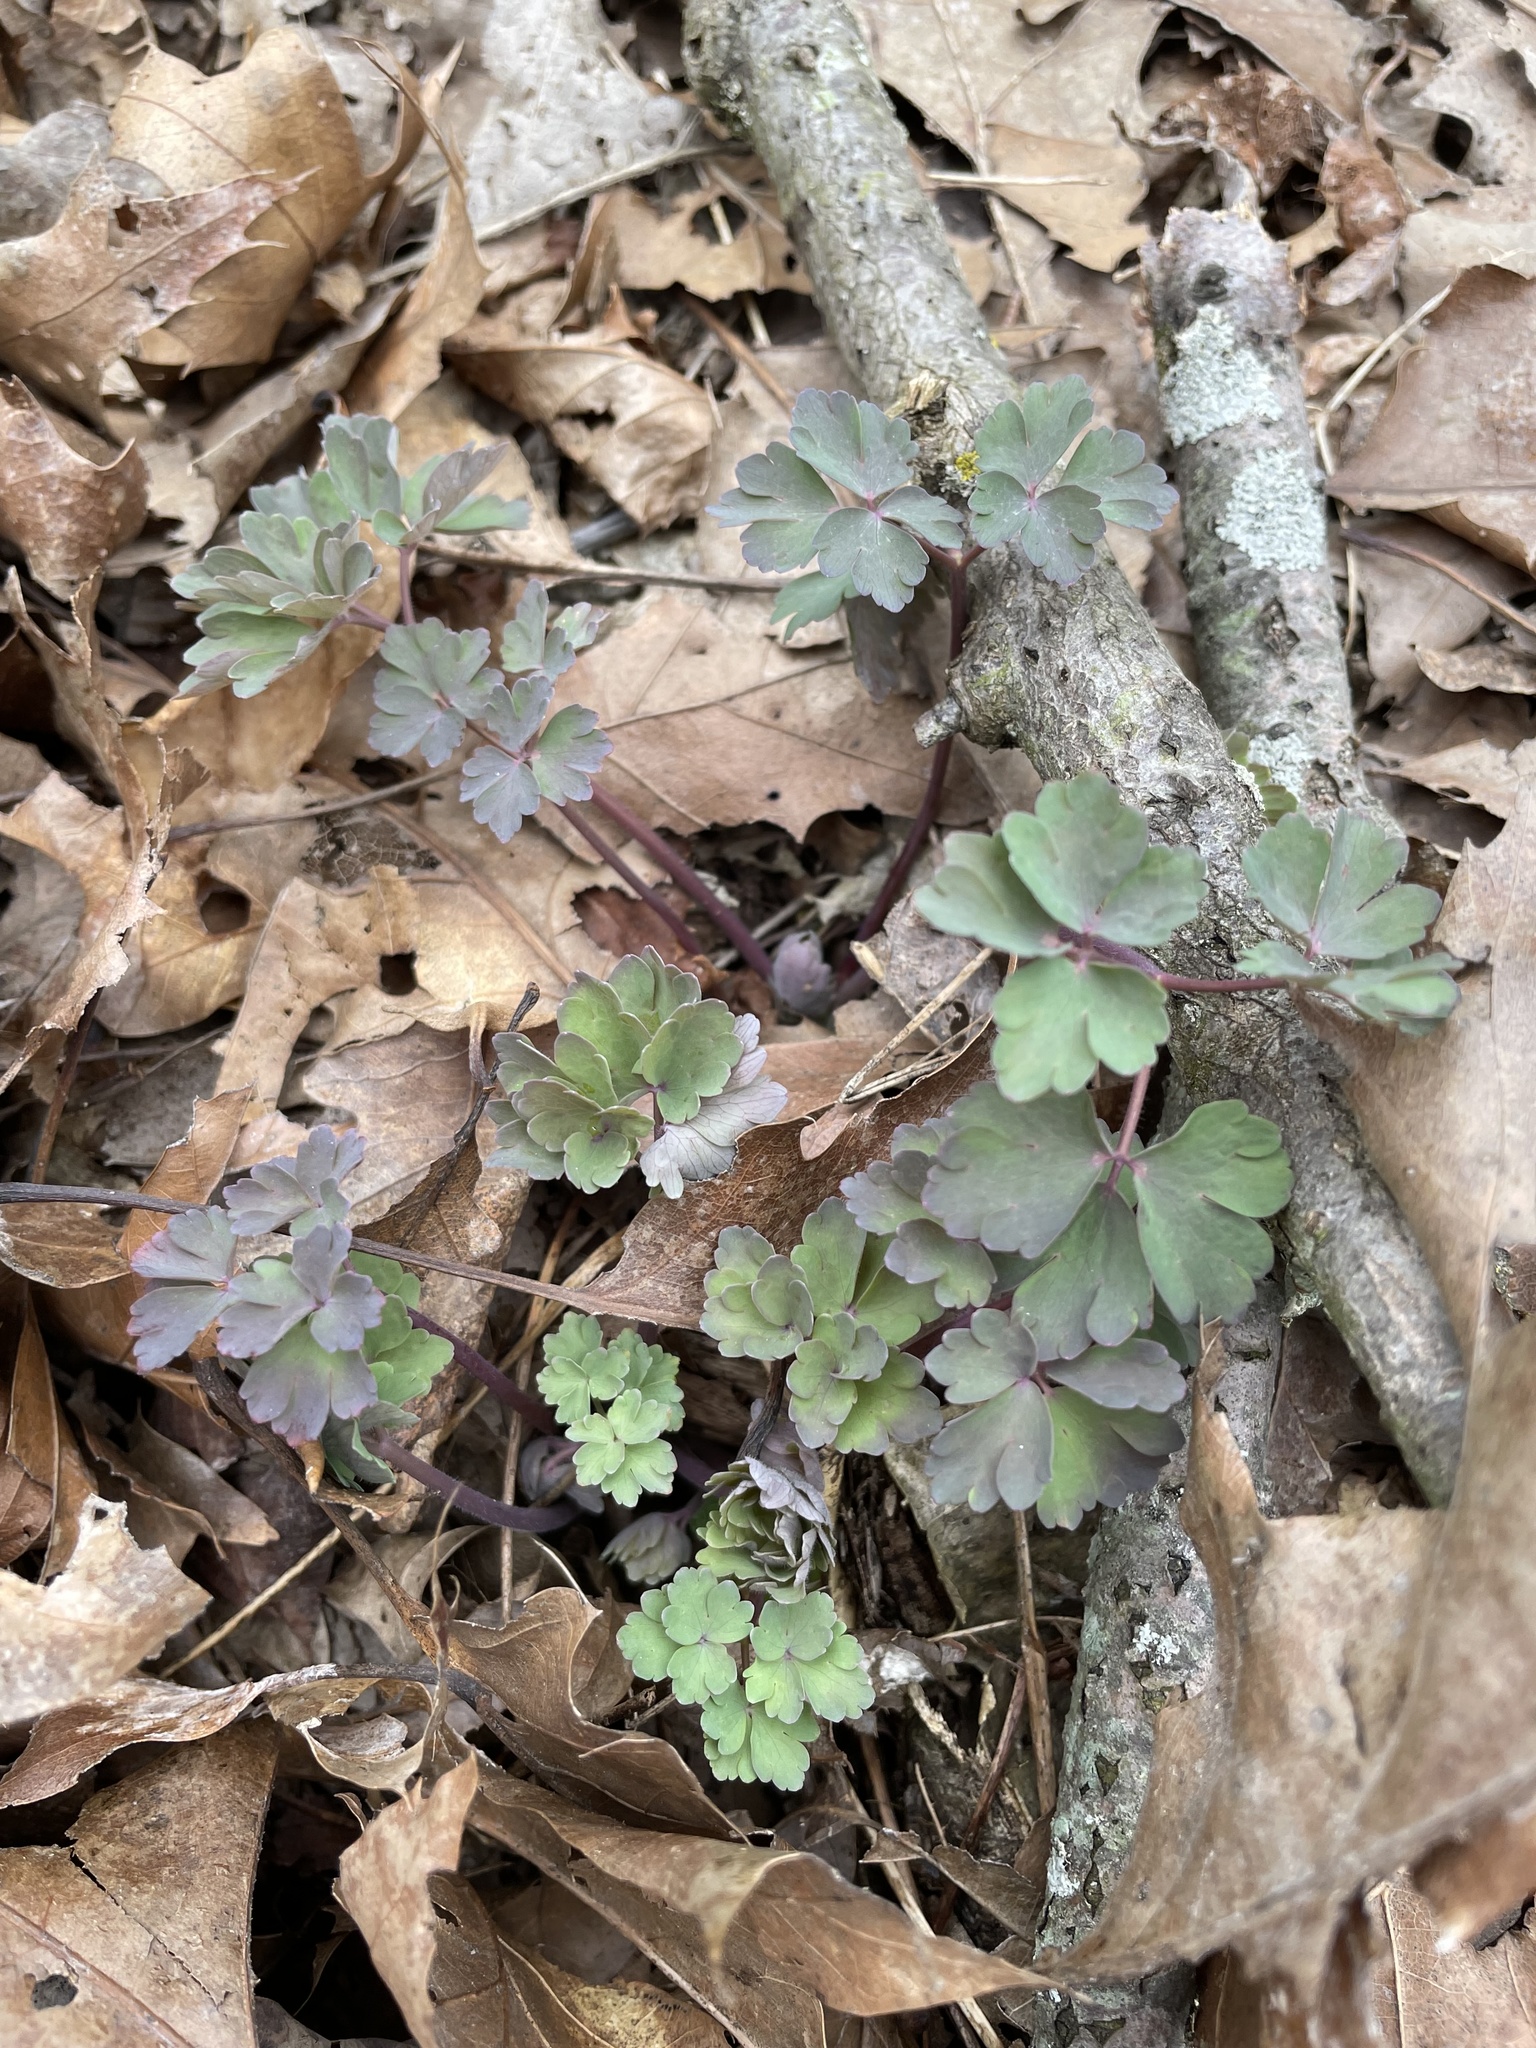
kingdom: Plantae
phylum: Tracheophyta
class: Magnoliopsida
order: Ranunculales
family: Ranunculaceae
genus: Aquilegia
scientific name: Aquilegia canadensis
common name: American columbine
